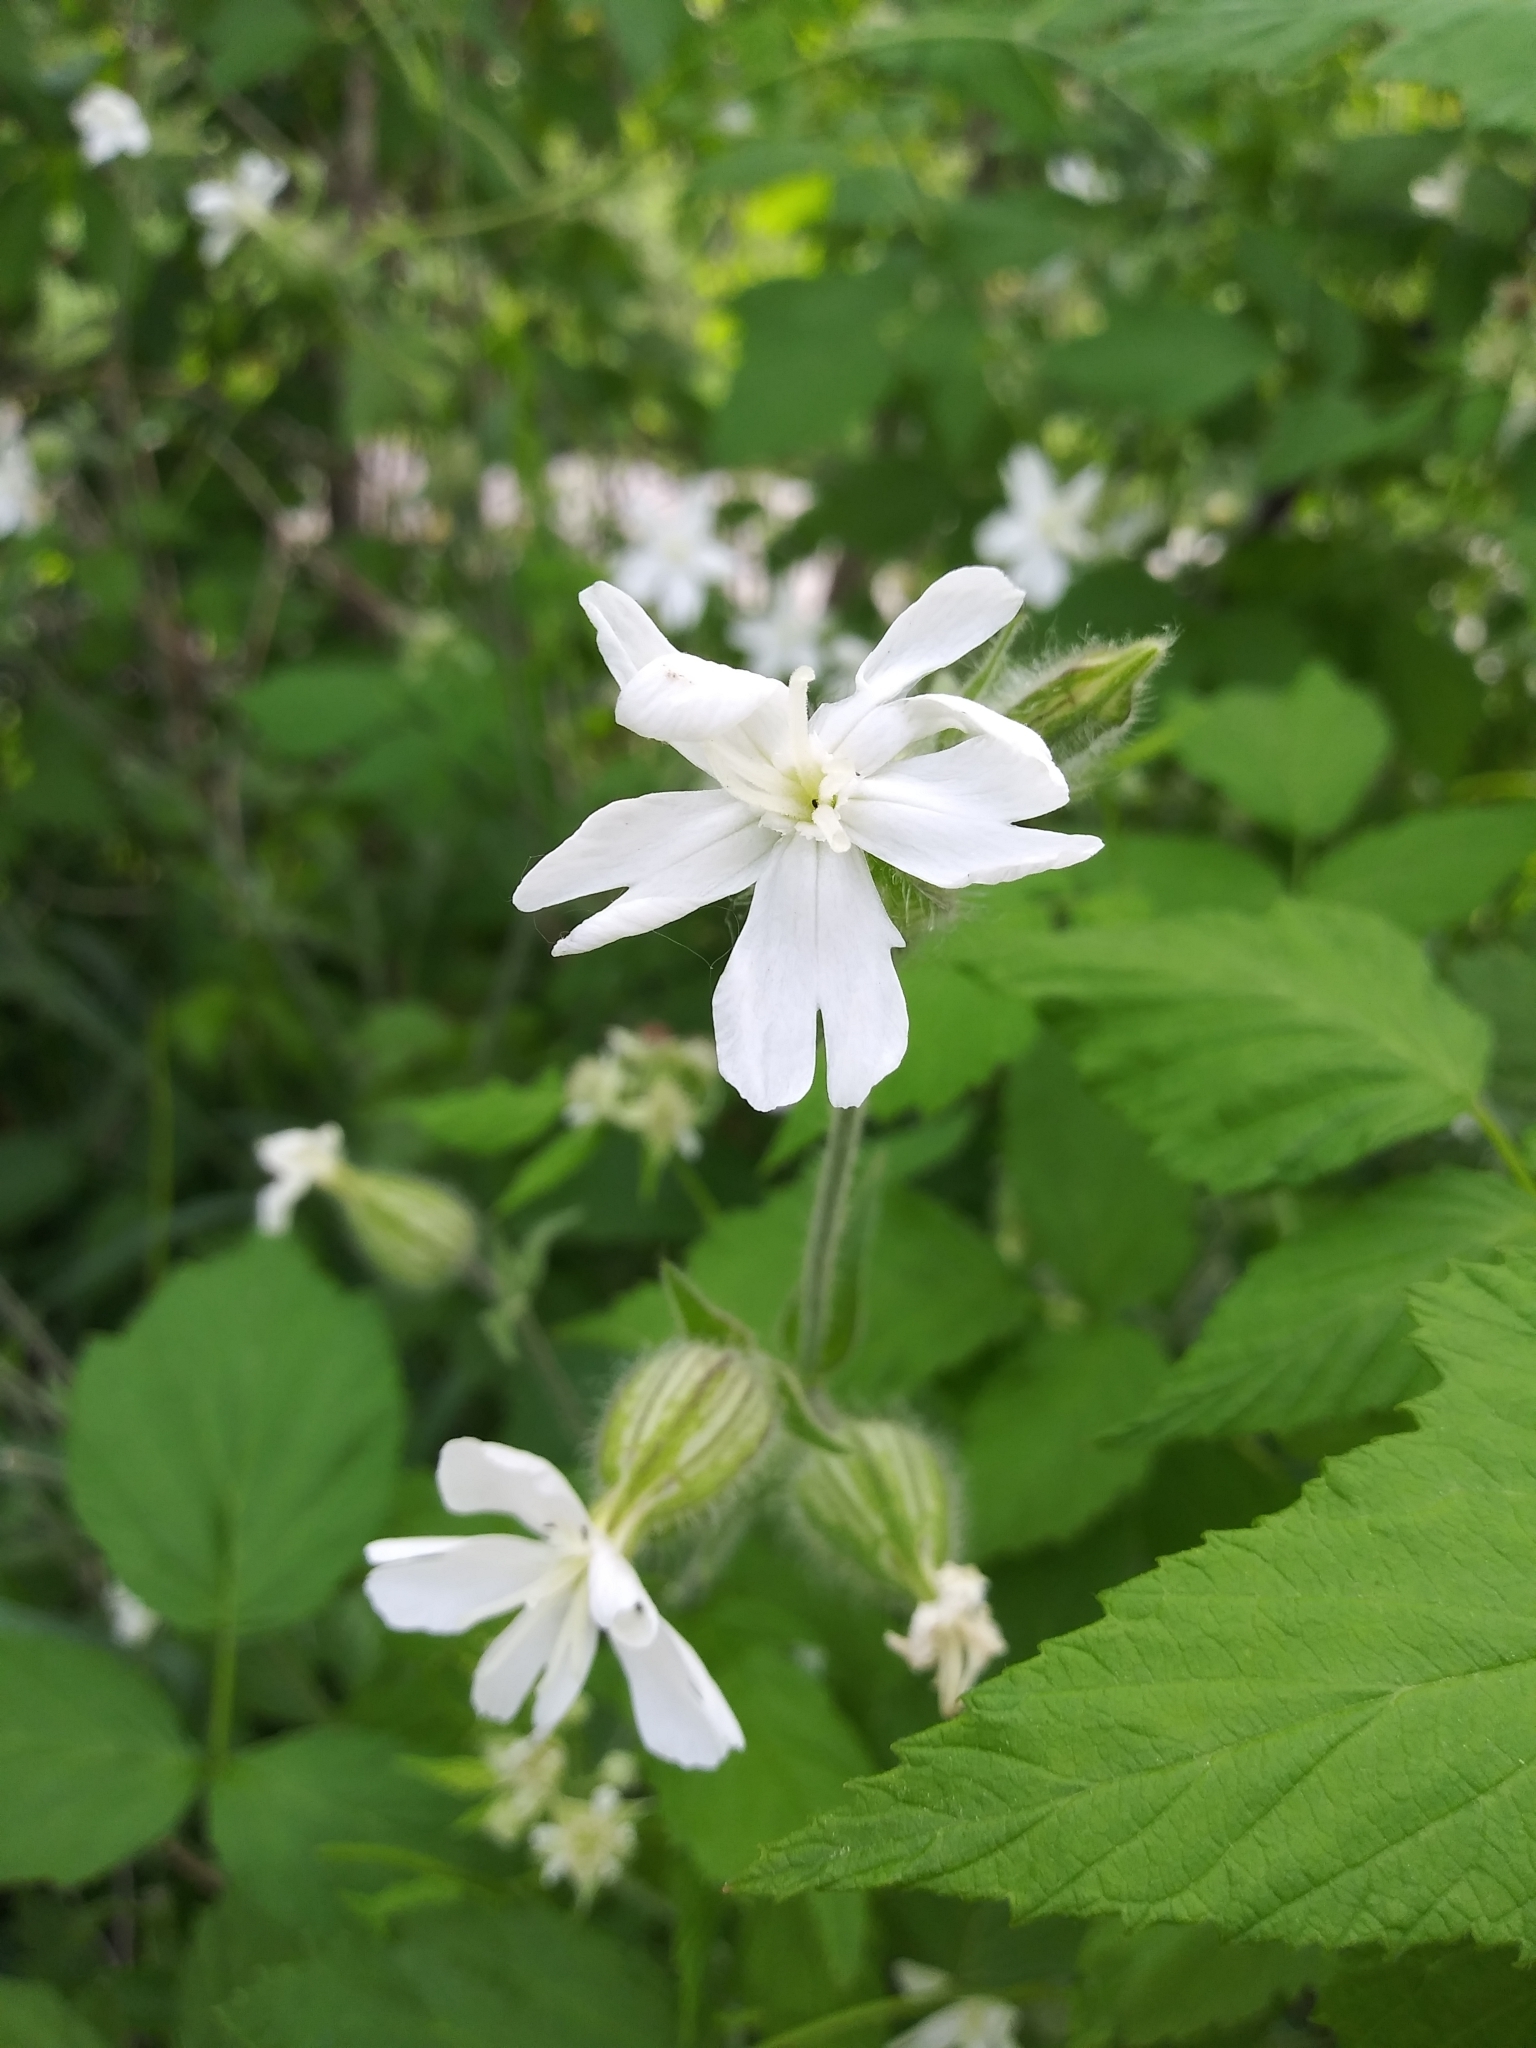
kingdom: Plantae
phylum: Tracheophyta
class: Magnoliopsida
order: Caryophyllales
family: Caryophyllaceae
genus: Silene
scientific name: Silene latifolia
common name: White campion
